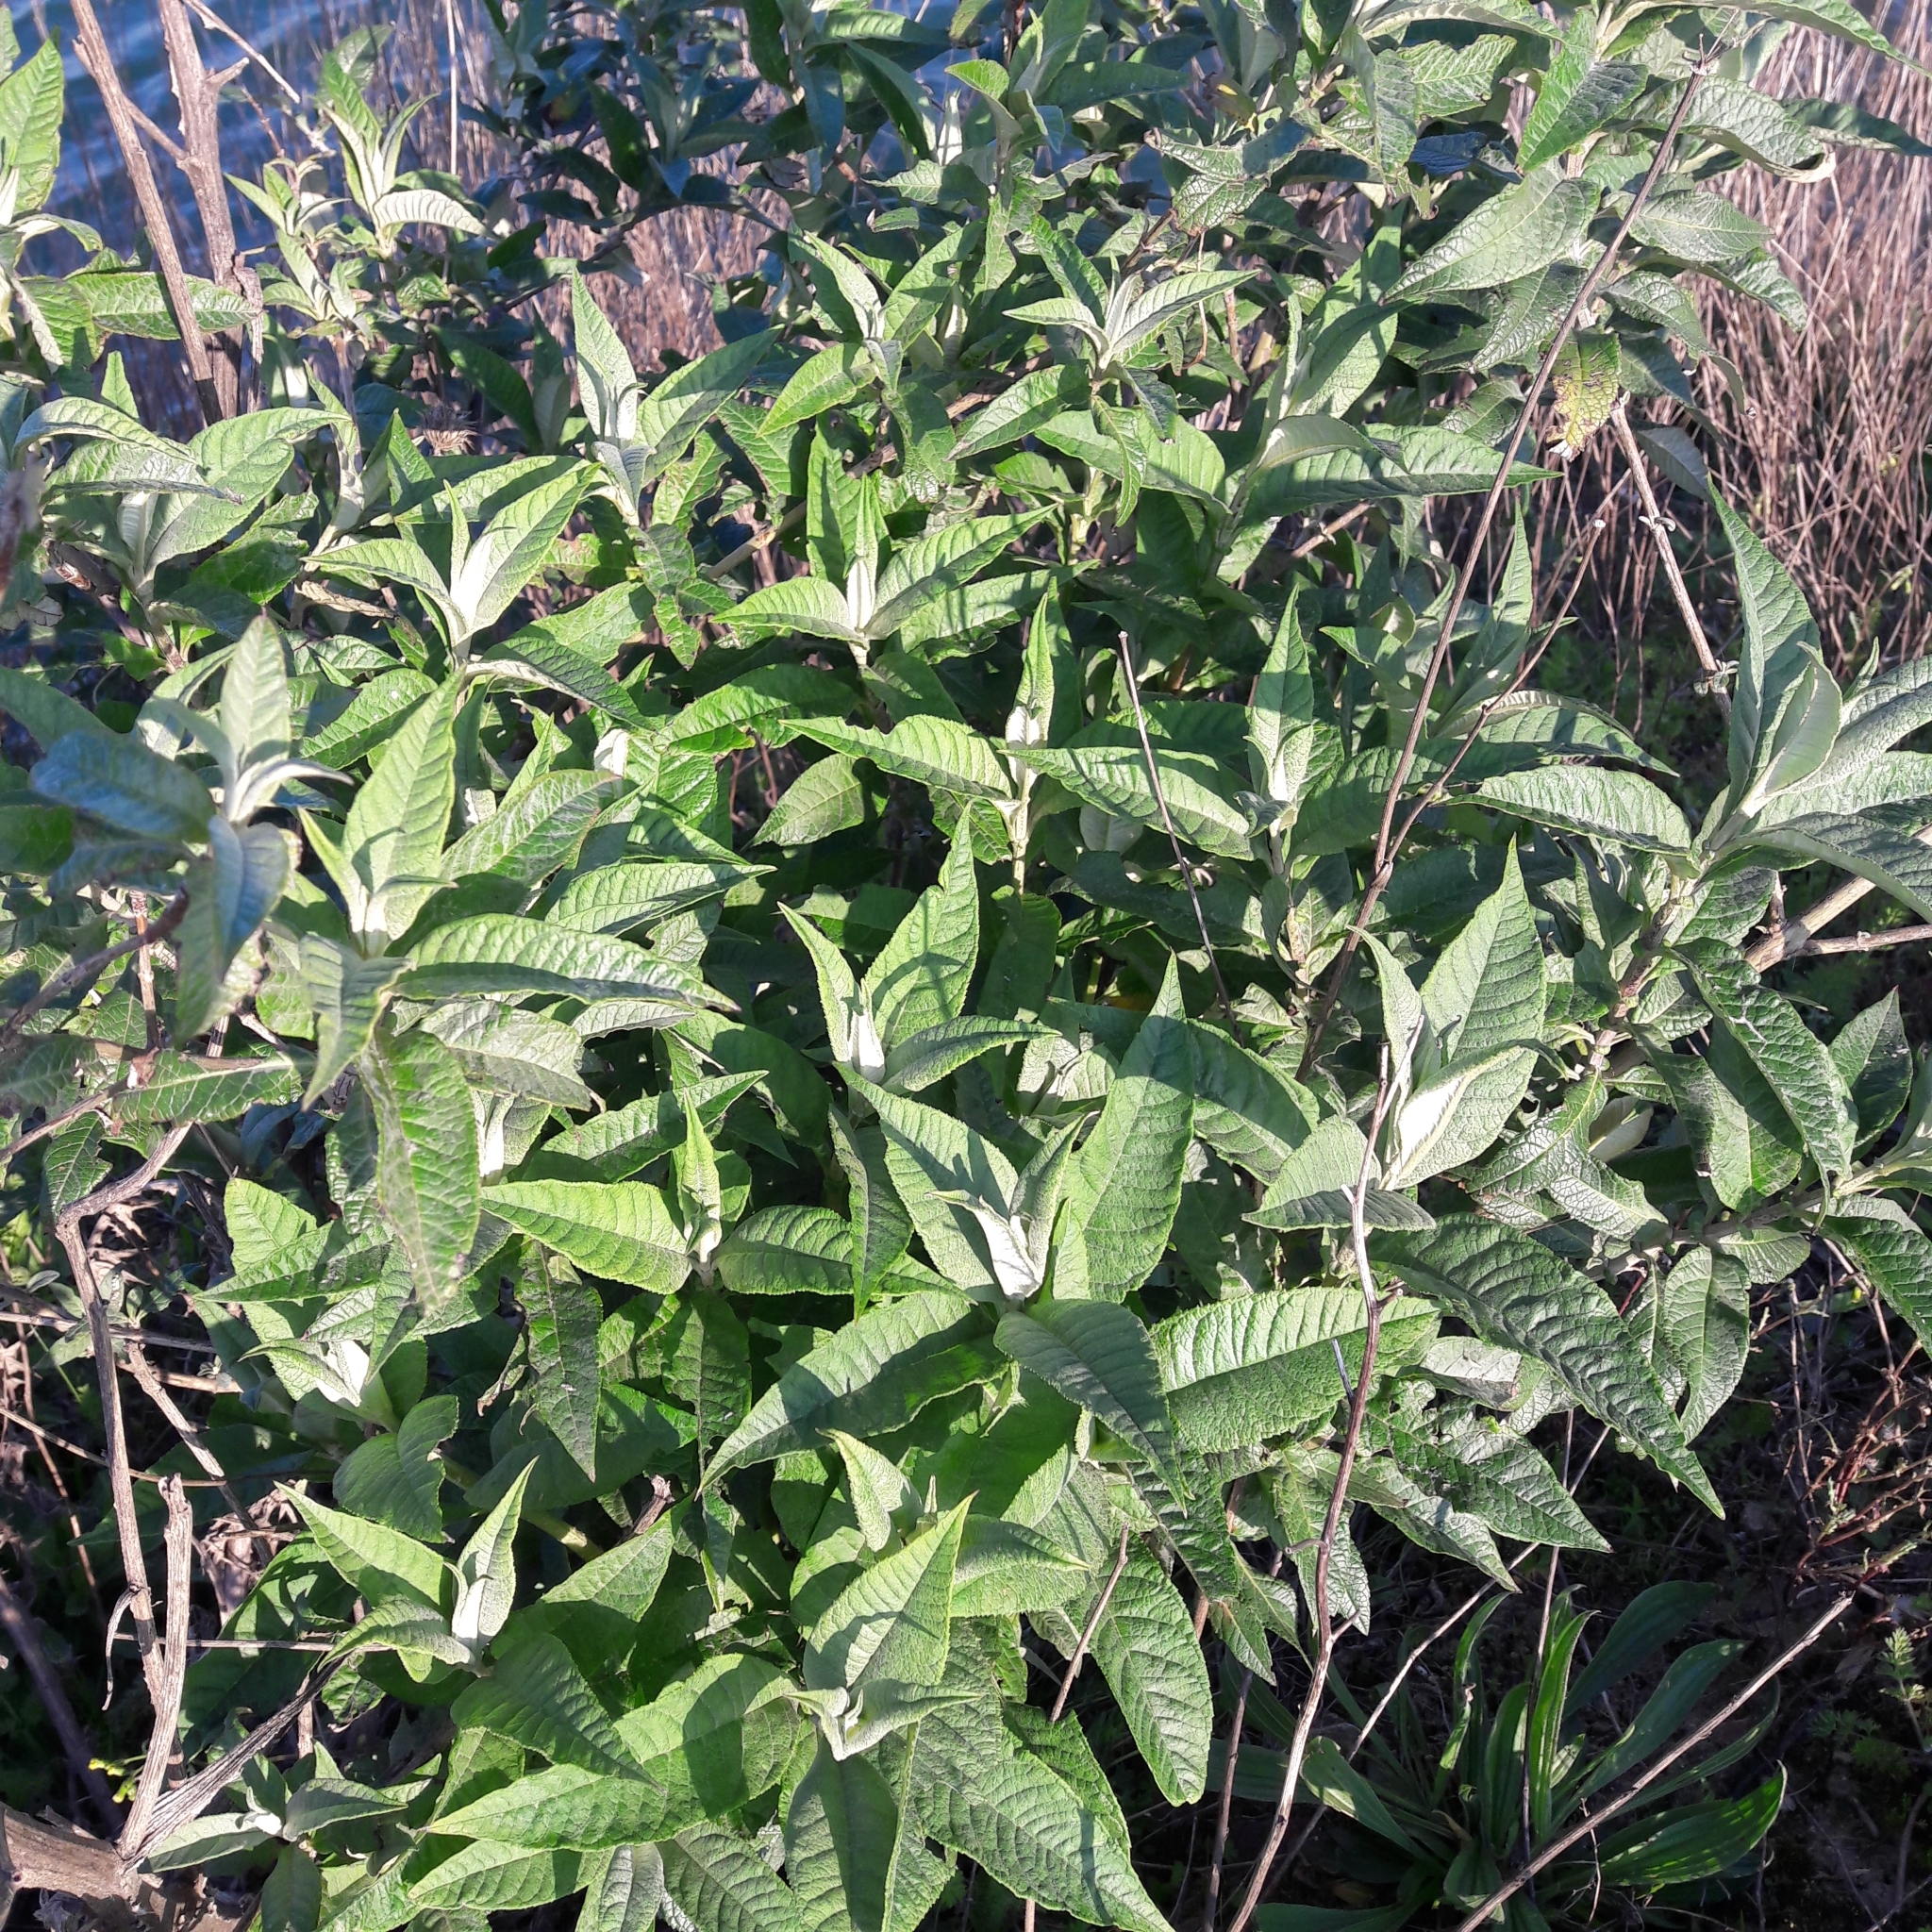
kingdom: Plantae
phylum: Tracheophyta
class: Magnoliopsida
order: Lamiales
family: Scrophulariaceae
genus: Buddleja
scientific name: Buddleja davidii
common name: Butterfly-bush
